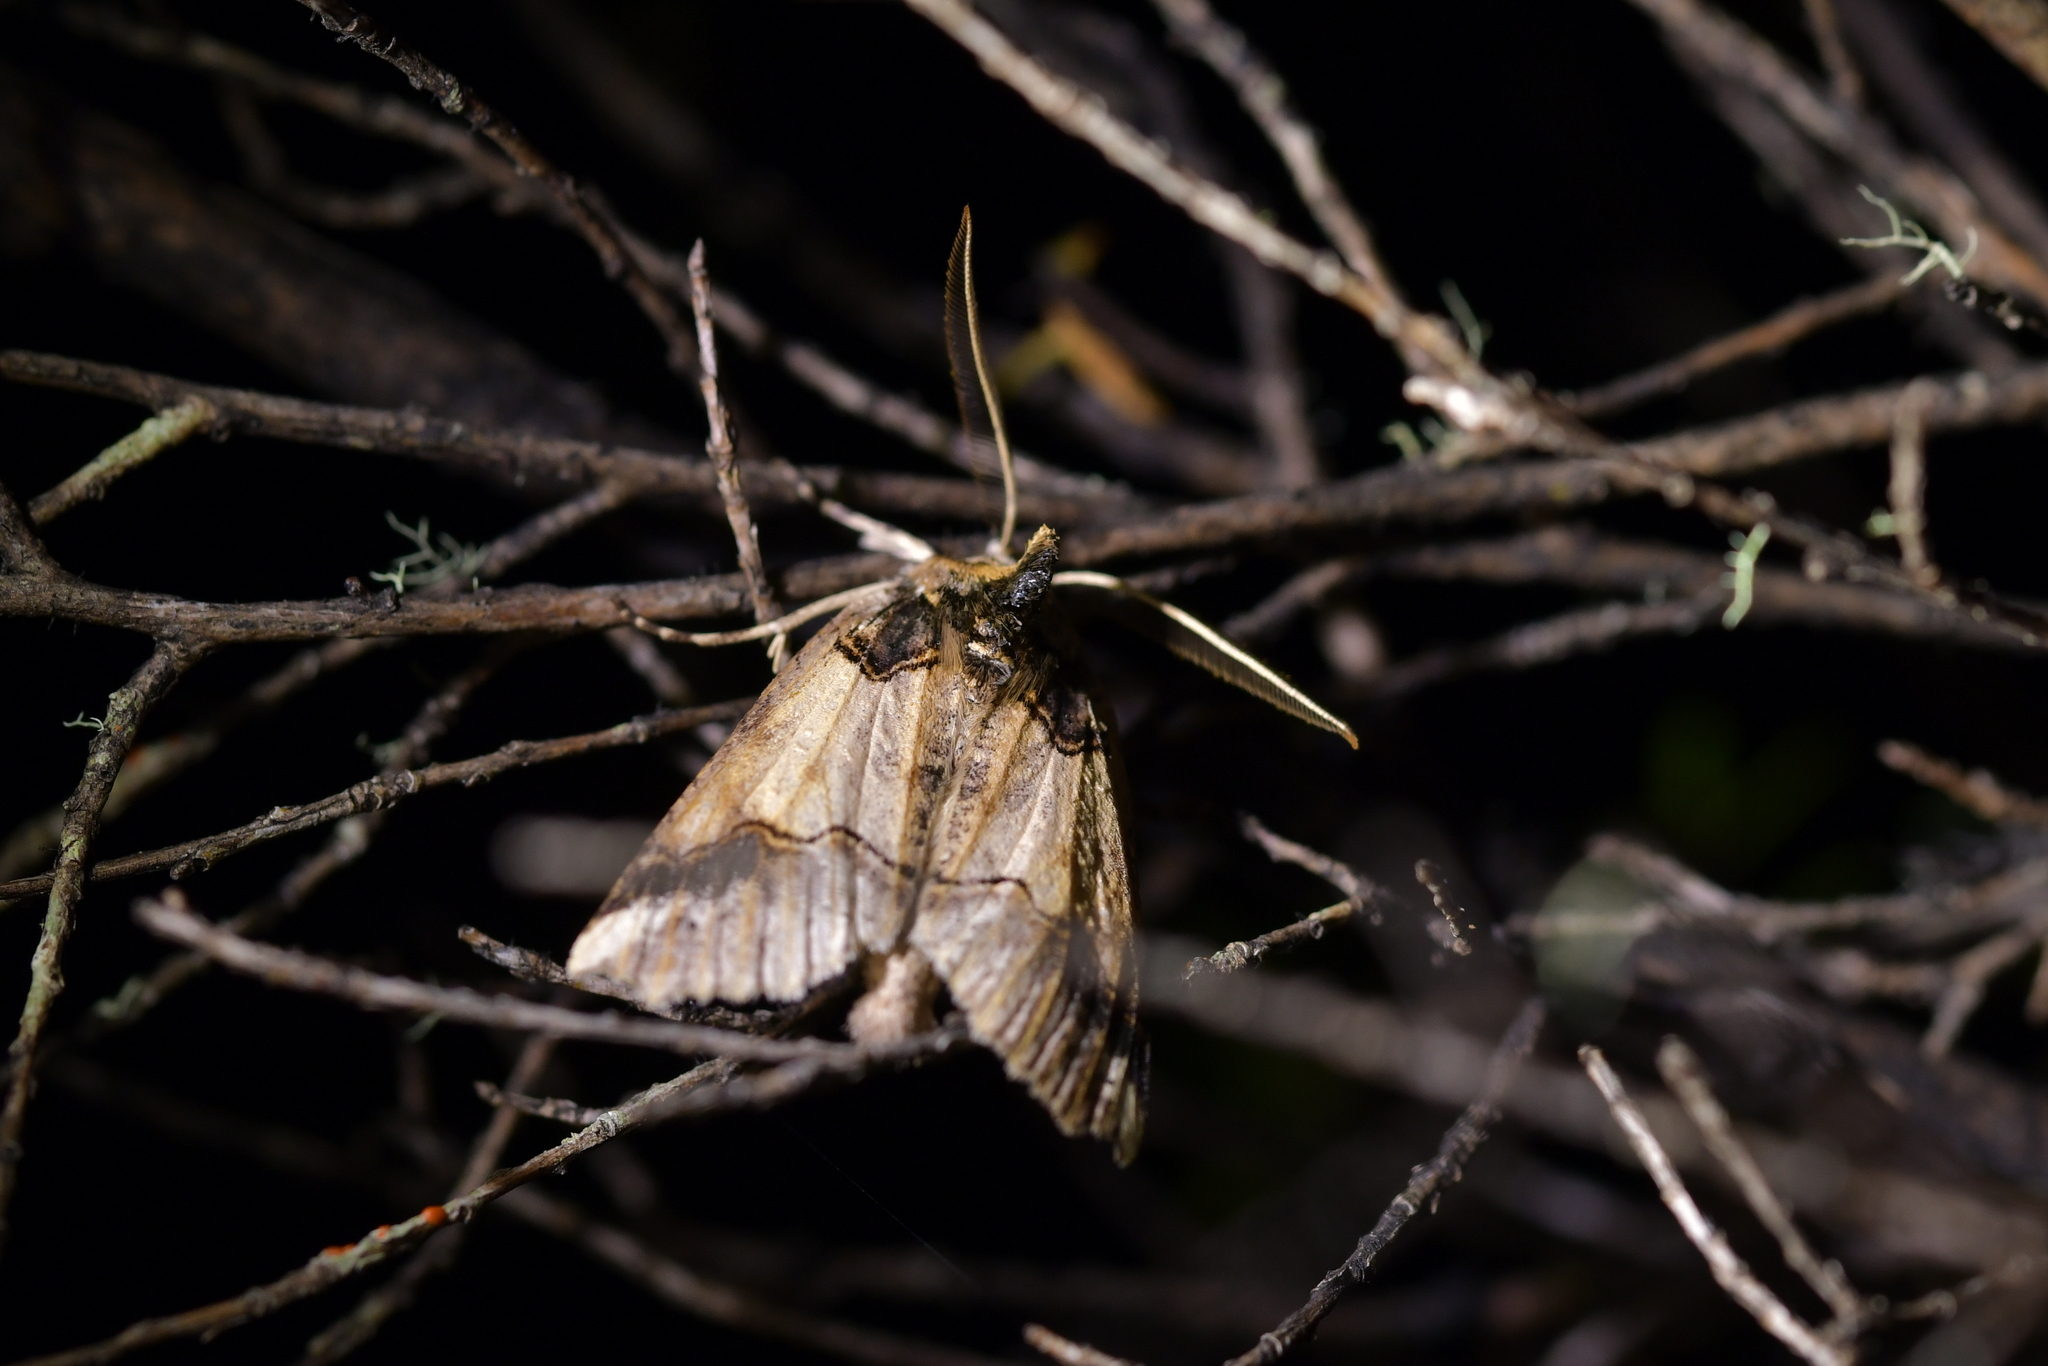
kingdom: Animalia
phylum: Arthropoda
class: Insecta
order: Lepidoptera
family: Geometridae
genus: Declana
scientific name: Declana
